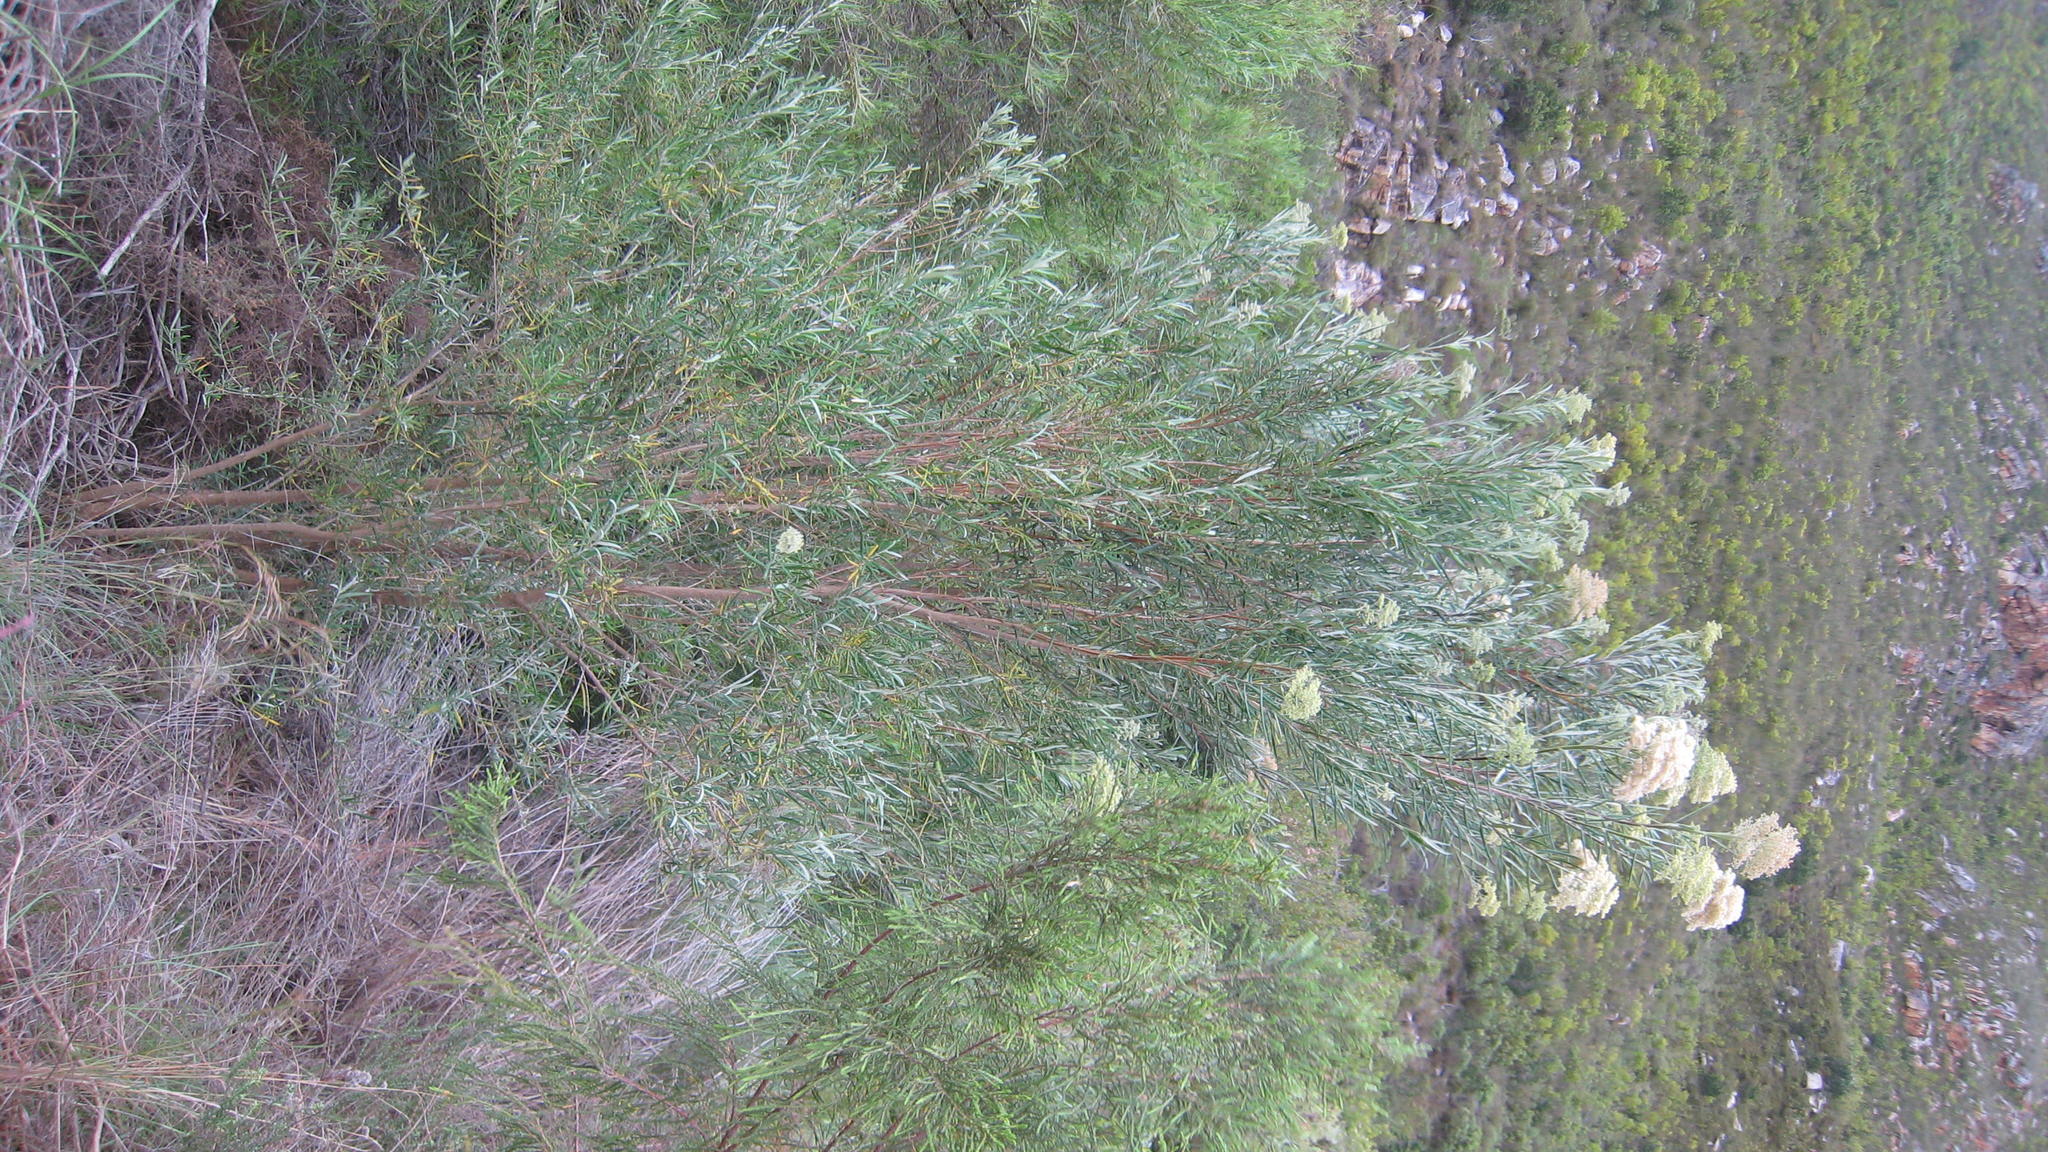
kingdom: Plantae
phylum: Tracheophyta
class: Magnoliopsida
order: Lamiales
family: Scrophulariaceae
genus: Buddleja
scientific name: Buddleja saligna
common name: False olive
